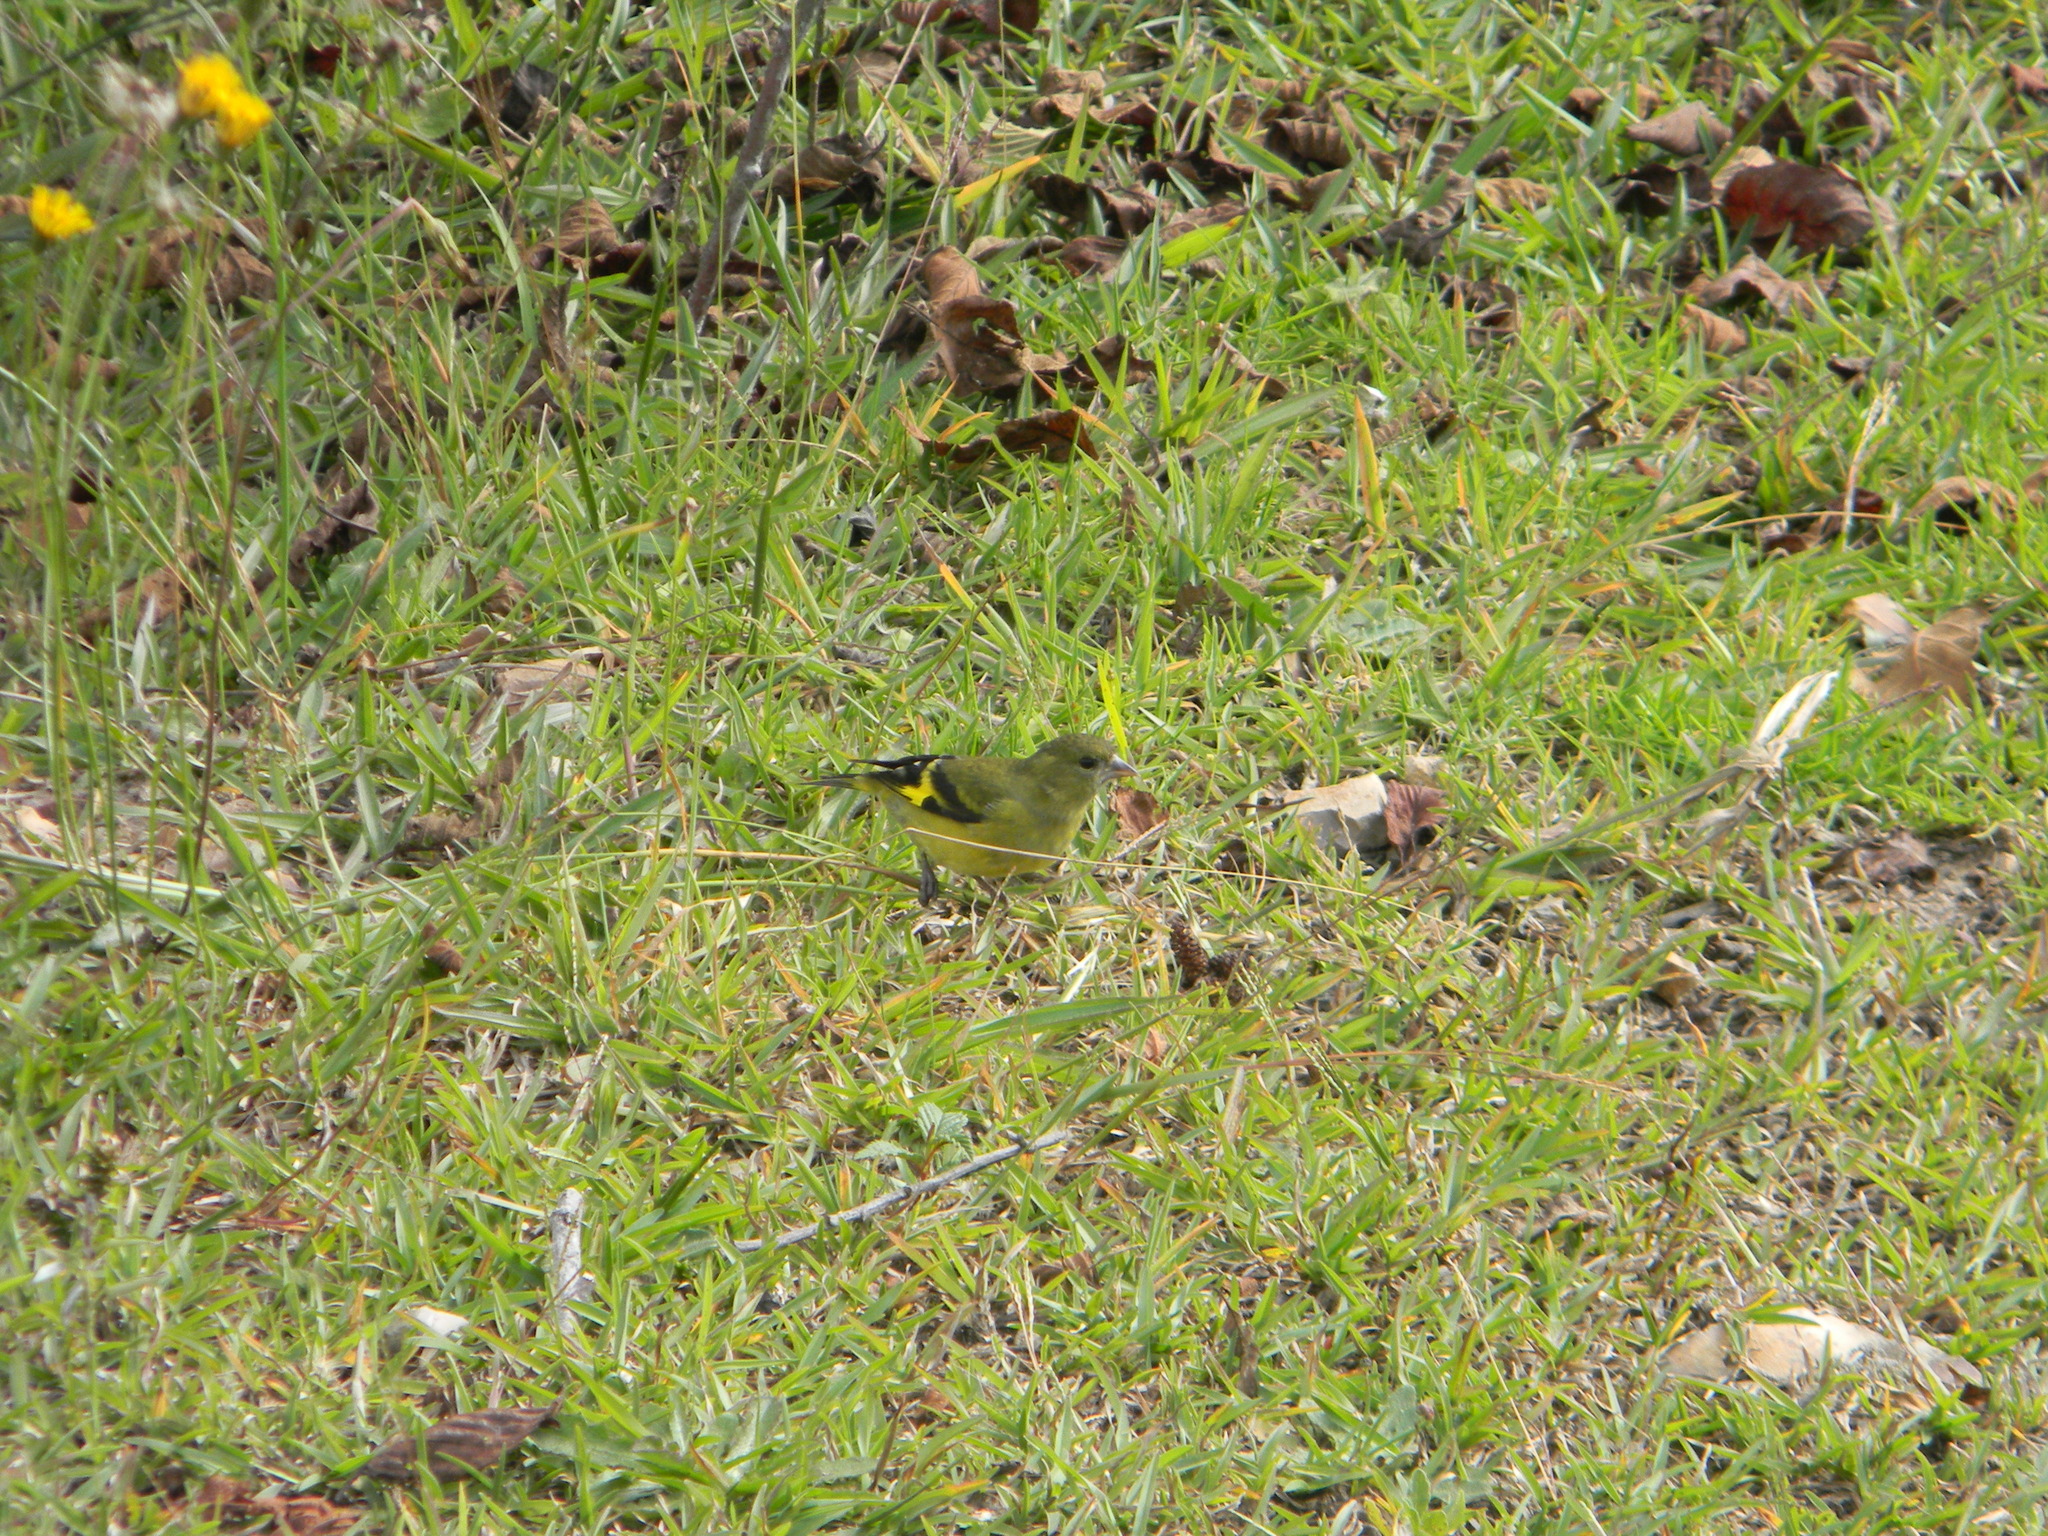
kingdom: Animalia
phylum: Chordata
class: Aves
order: Passeriformes
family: Fringillidae
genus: Spinus
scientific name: Spinus spinescens
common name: Andean siskin
